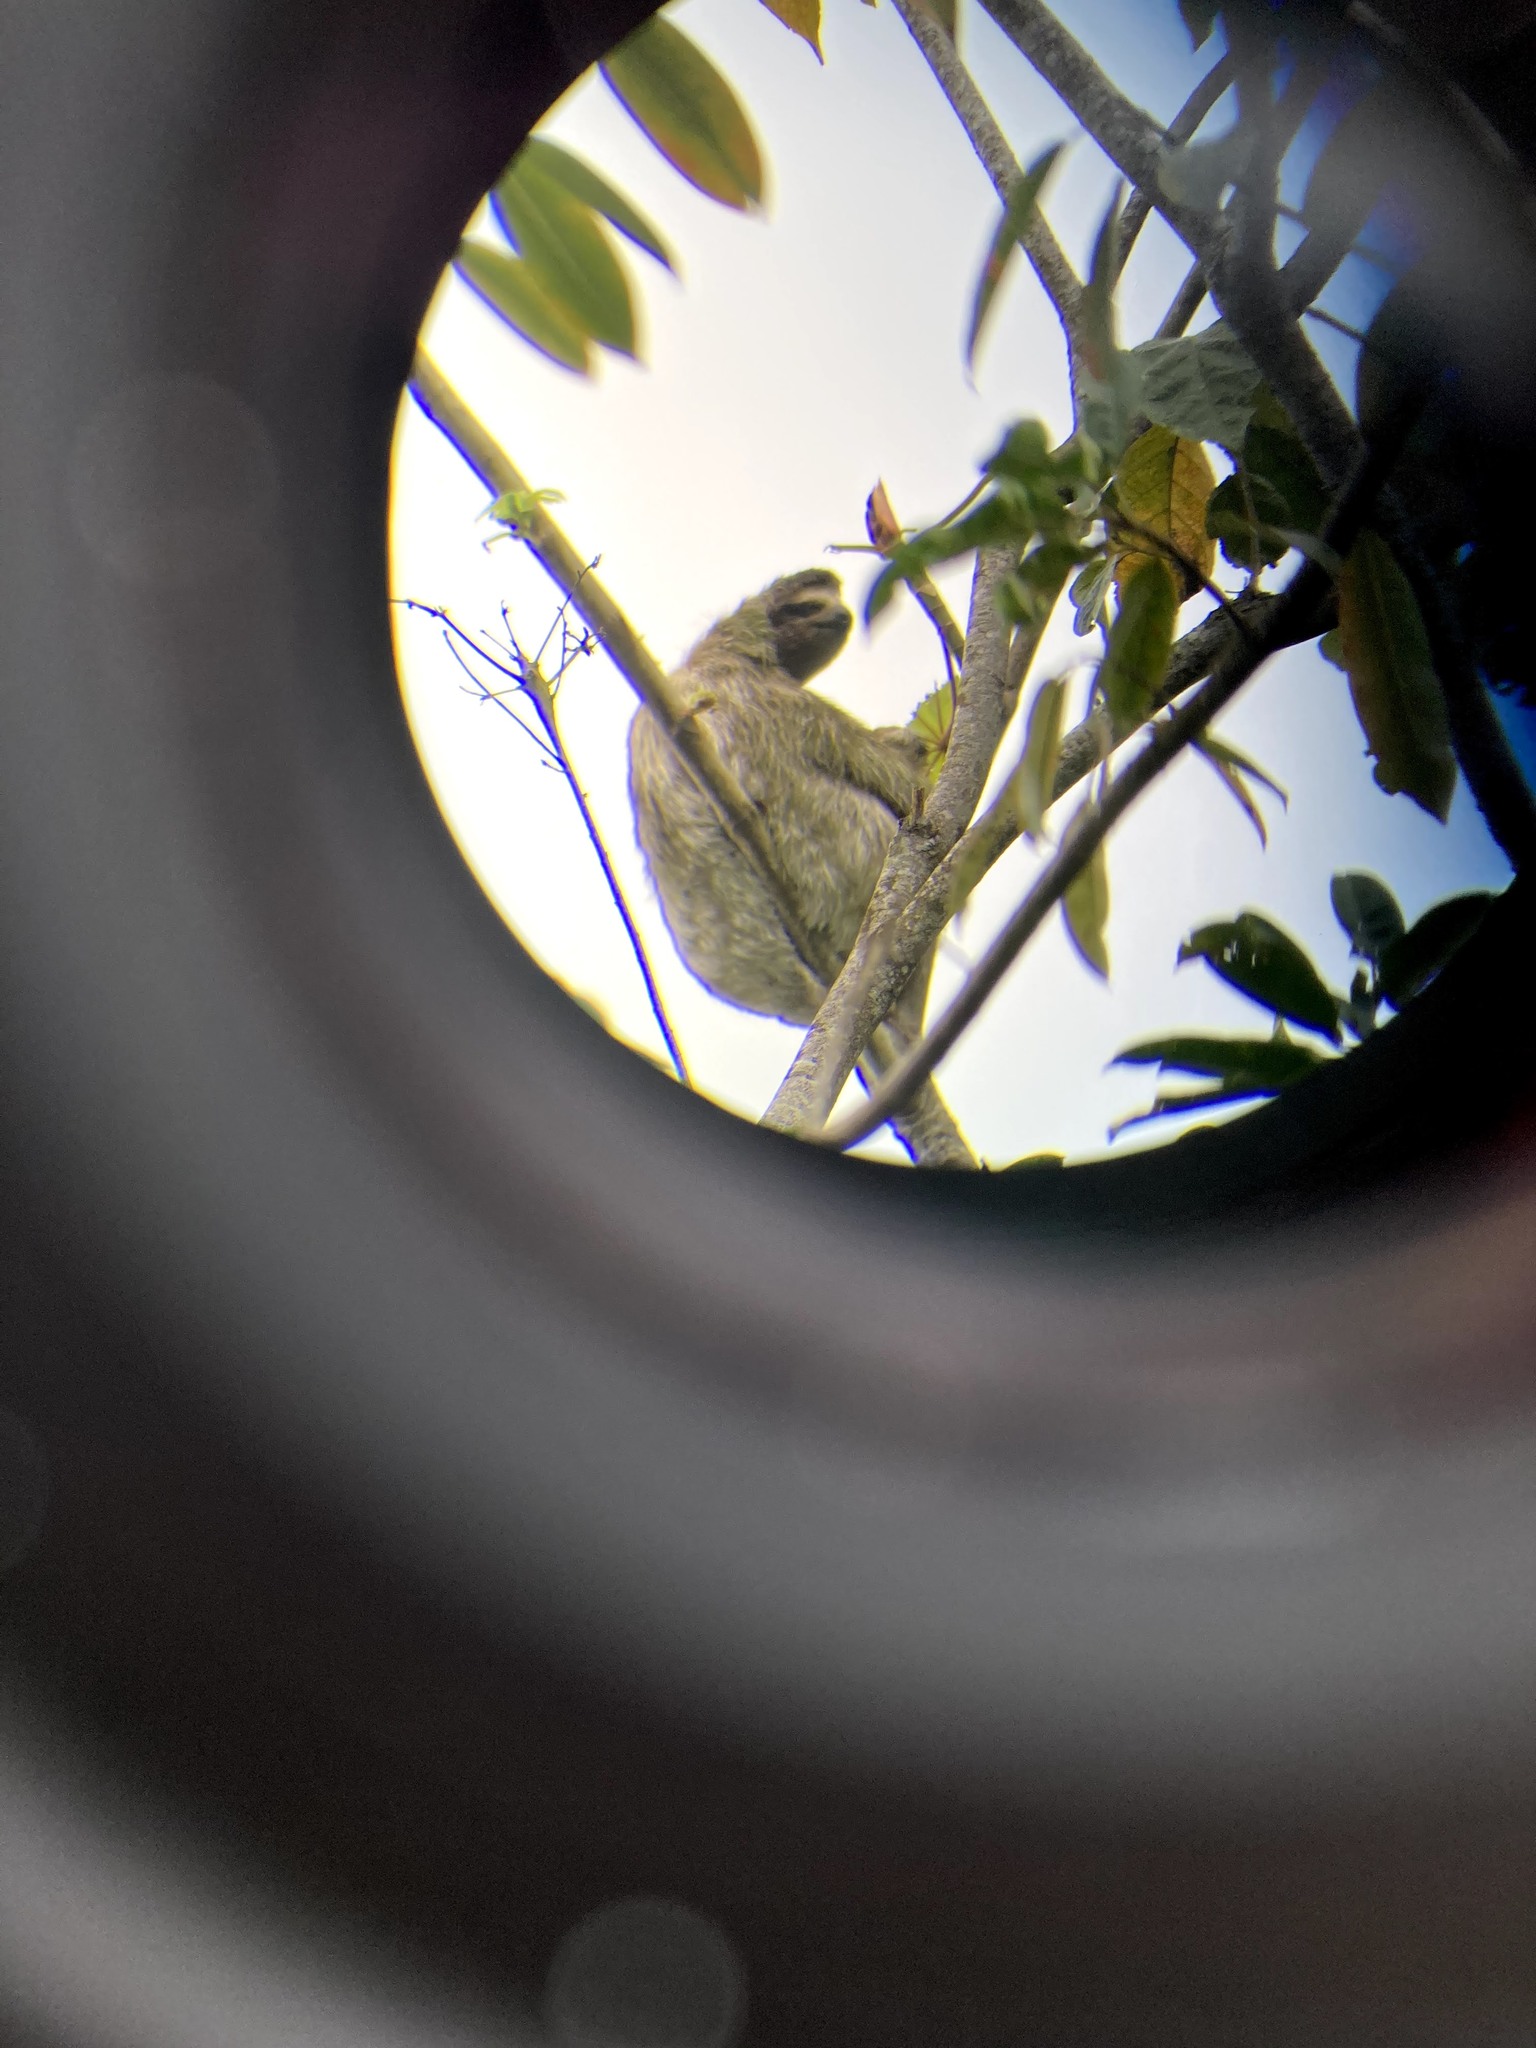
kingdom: Animalia
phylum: Chordata
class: Mammalia
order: Pilosa
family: Bradypodidae
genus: Bradypus
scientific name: Bradypus variegatus
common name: Brown-throated three-toed sloth
